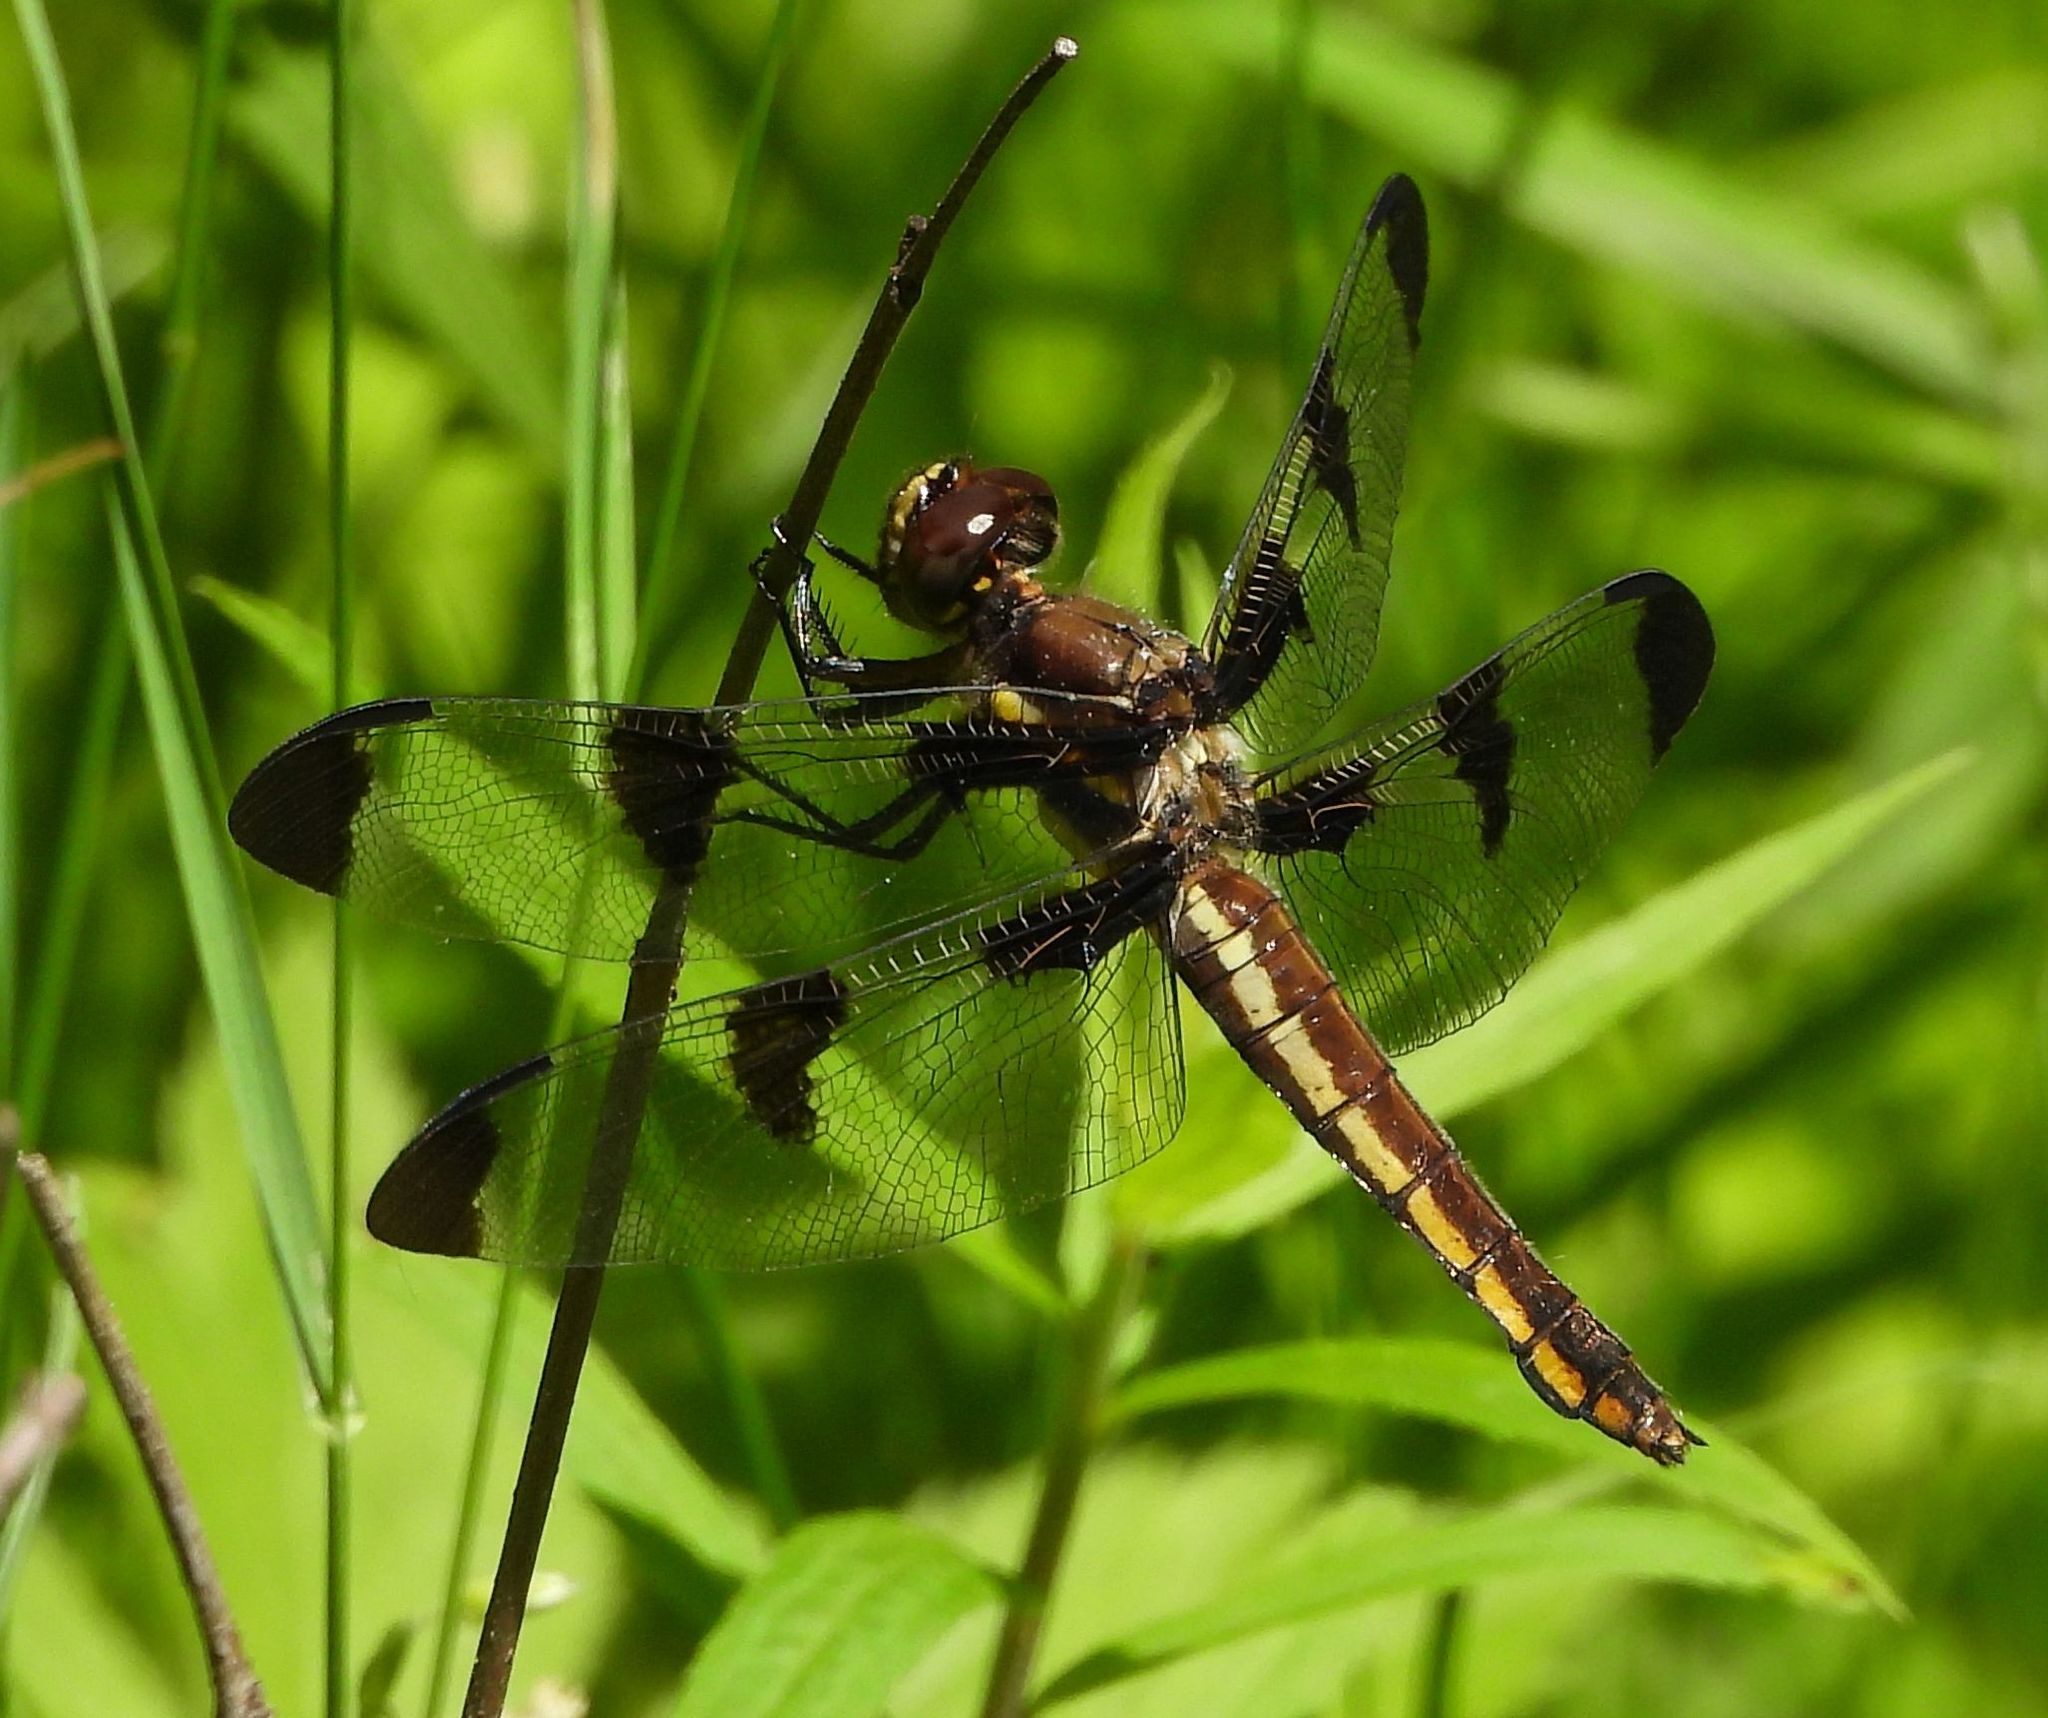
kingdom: Animalia
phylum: Arthropoda
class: Insecta
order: Odonata
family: Libellulidae
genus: Libellula
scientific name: Libellula pulchella
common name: Twelve-spotted skimmer
